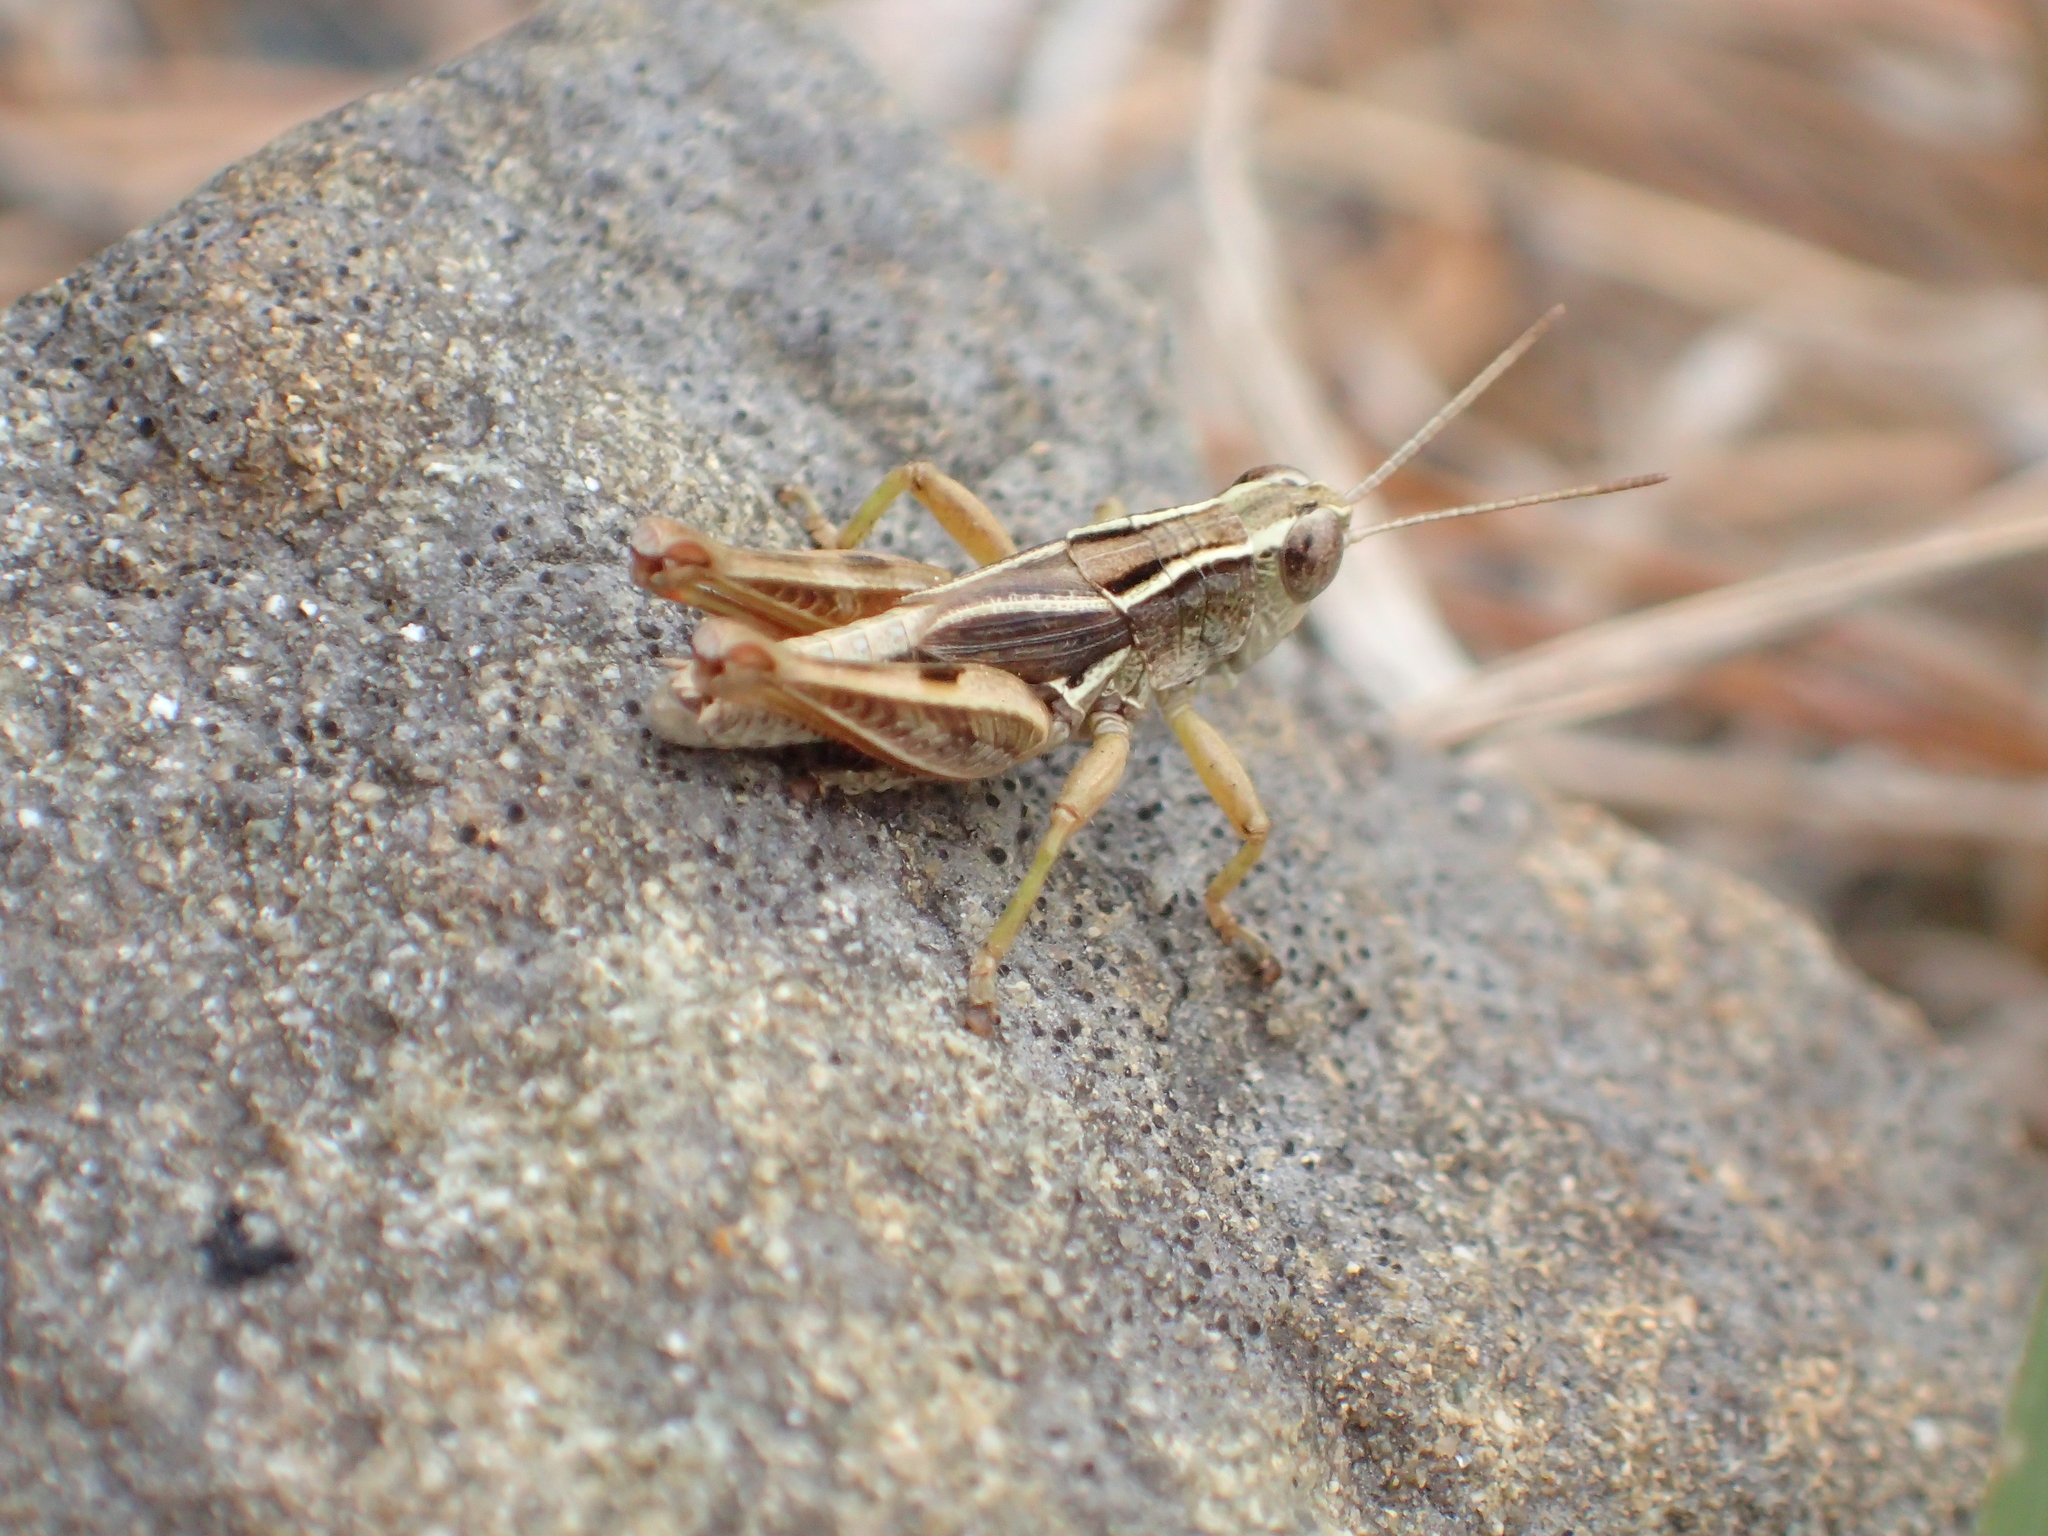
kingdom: Animalia
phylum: Arthropoda
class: Insecta
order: Orthoptera
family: Acrididae
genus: Phaulacridium
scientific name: Phaulacridium marginale
